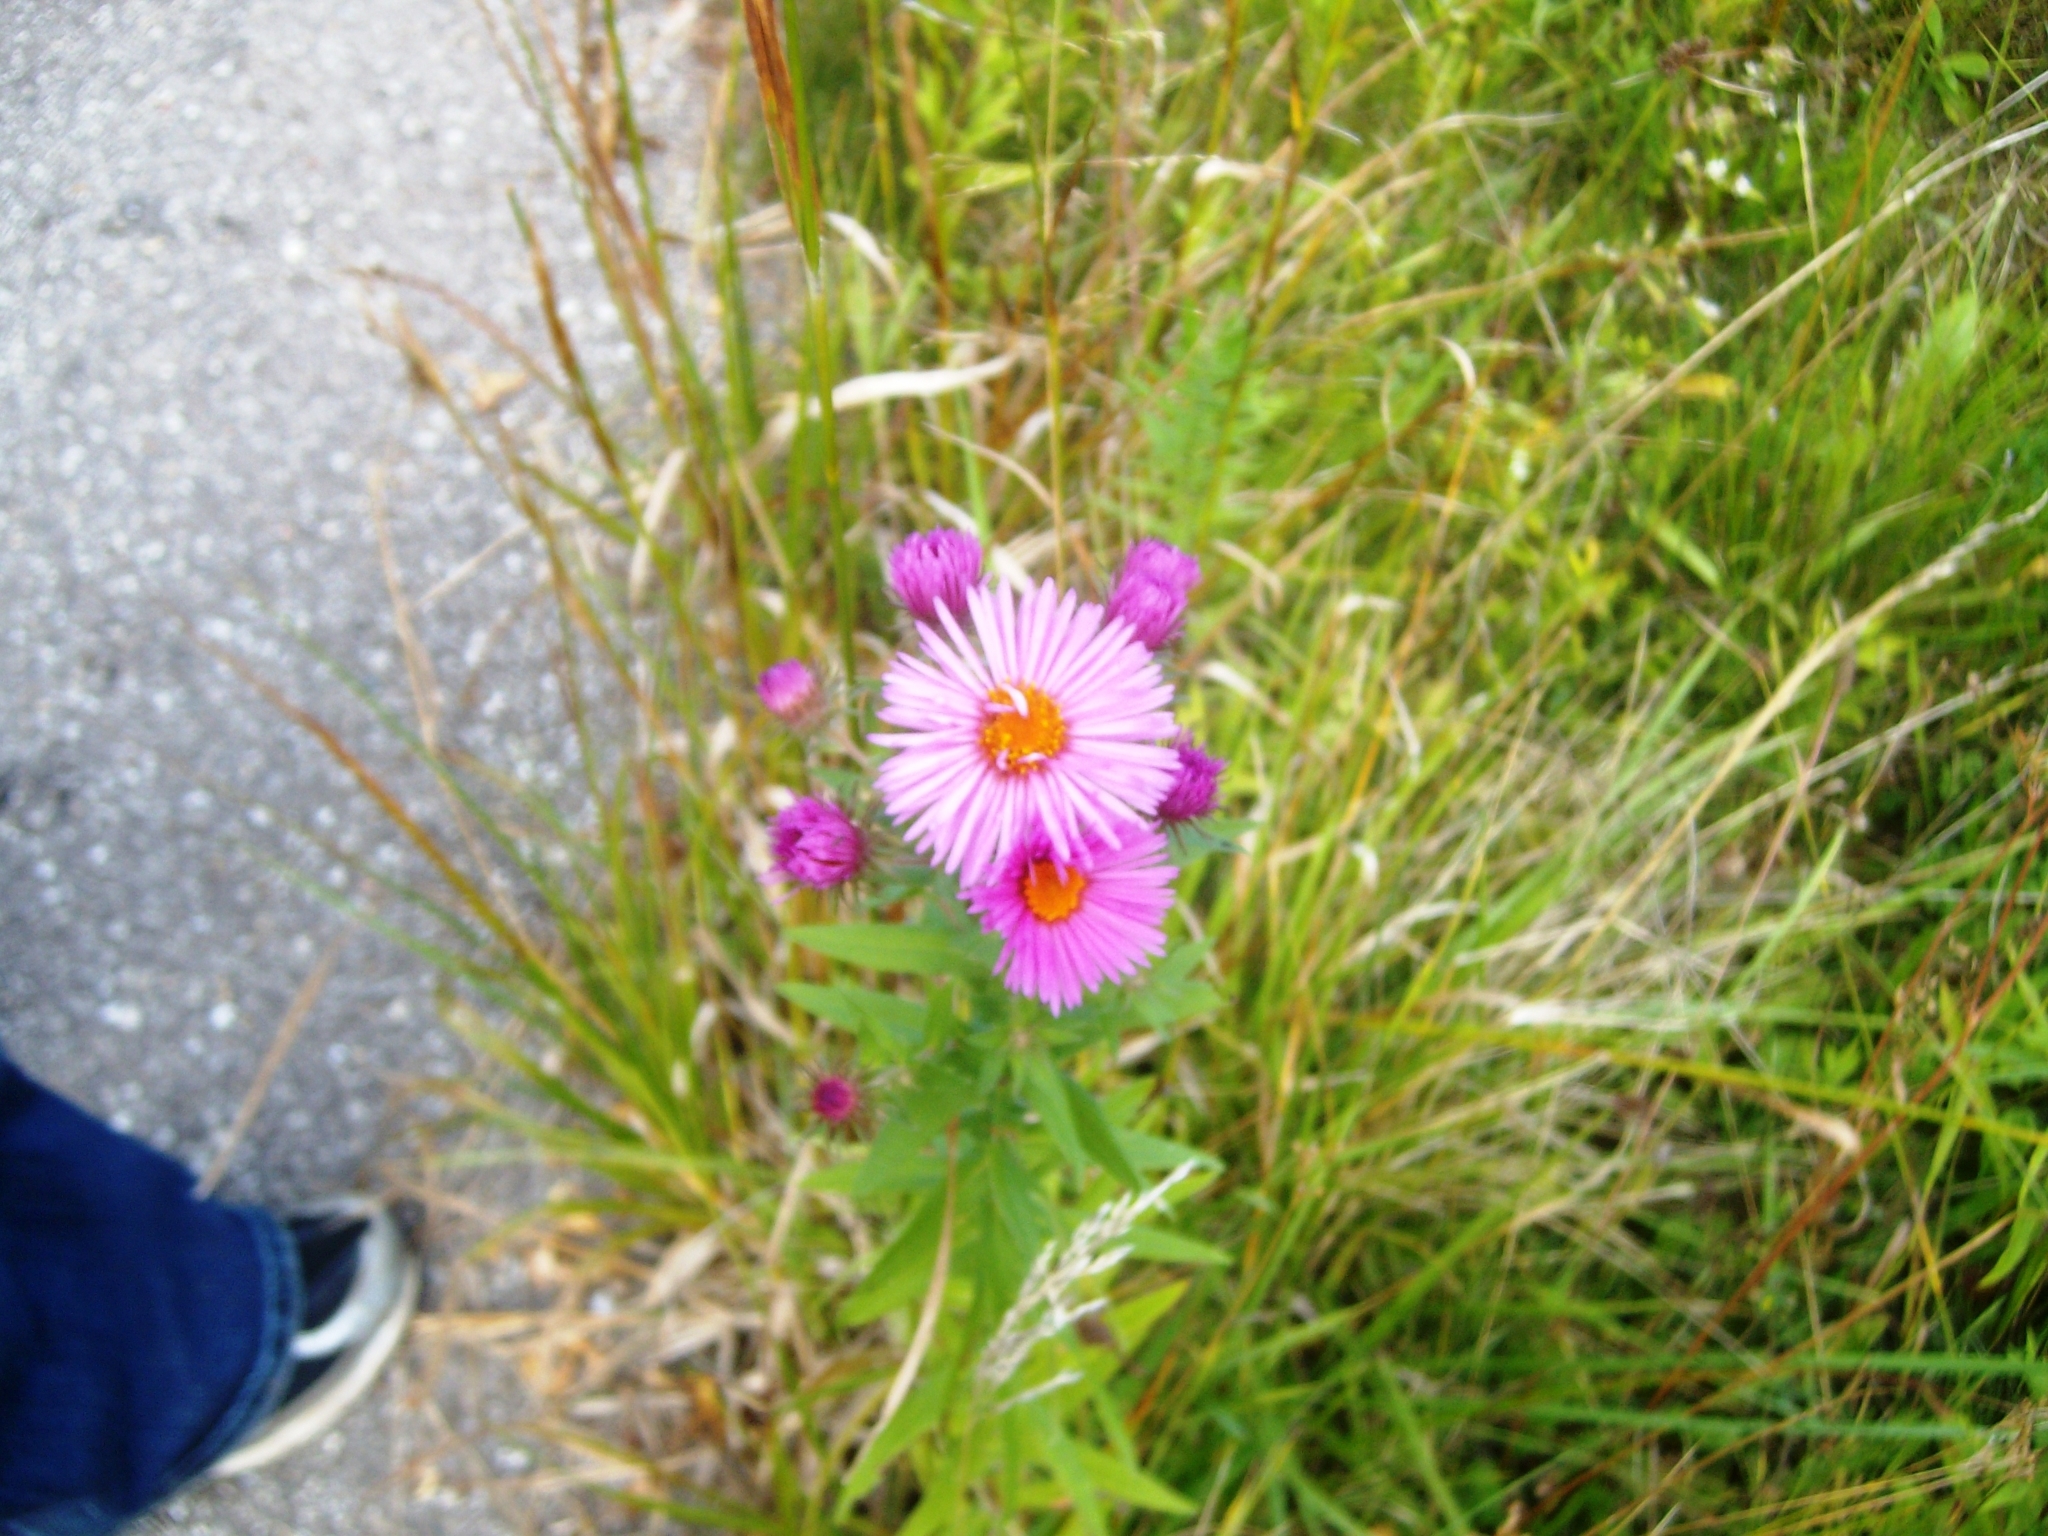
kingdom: Plantae
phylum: Tracheophyta
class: Magnoliopsida
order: Asterales
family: Asteraceae
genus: Symphyotrichum
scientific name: Symphyotrichum novae-angliae
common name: Michaelmas daisy
